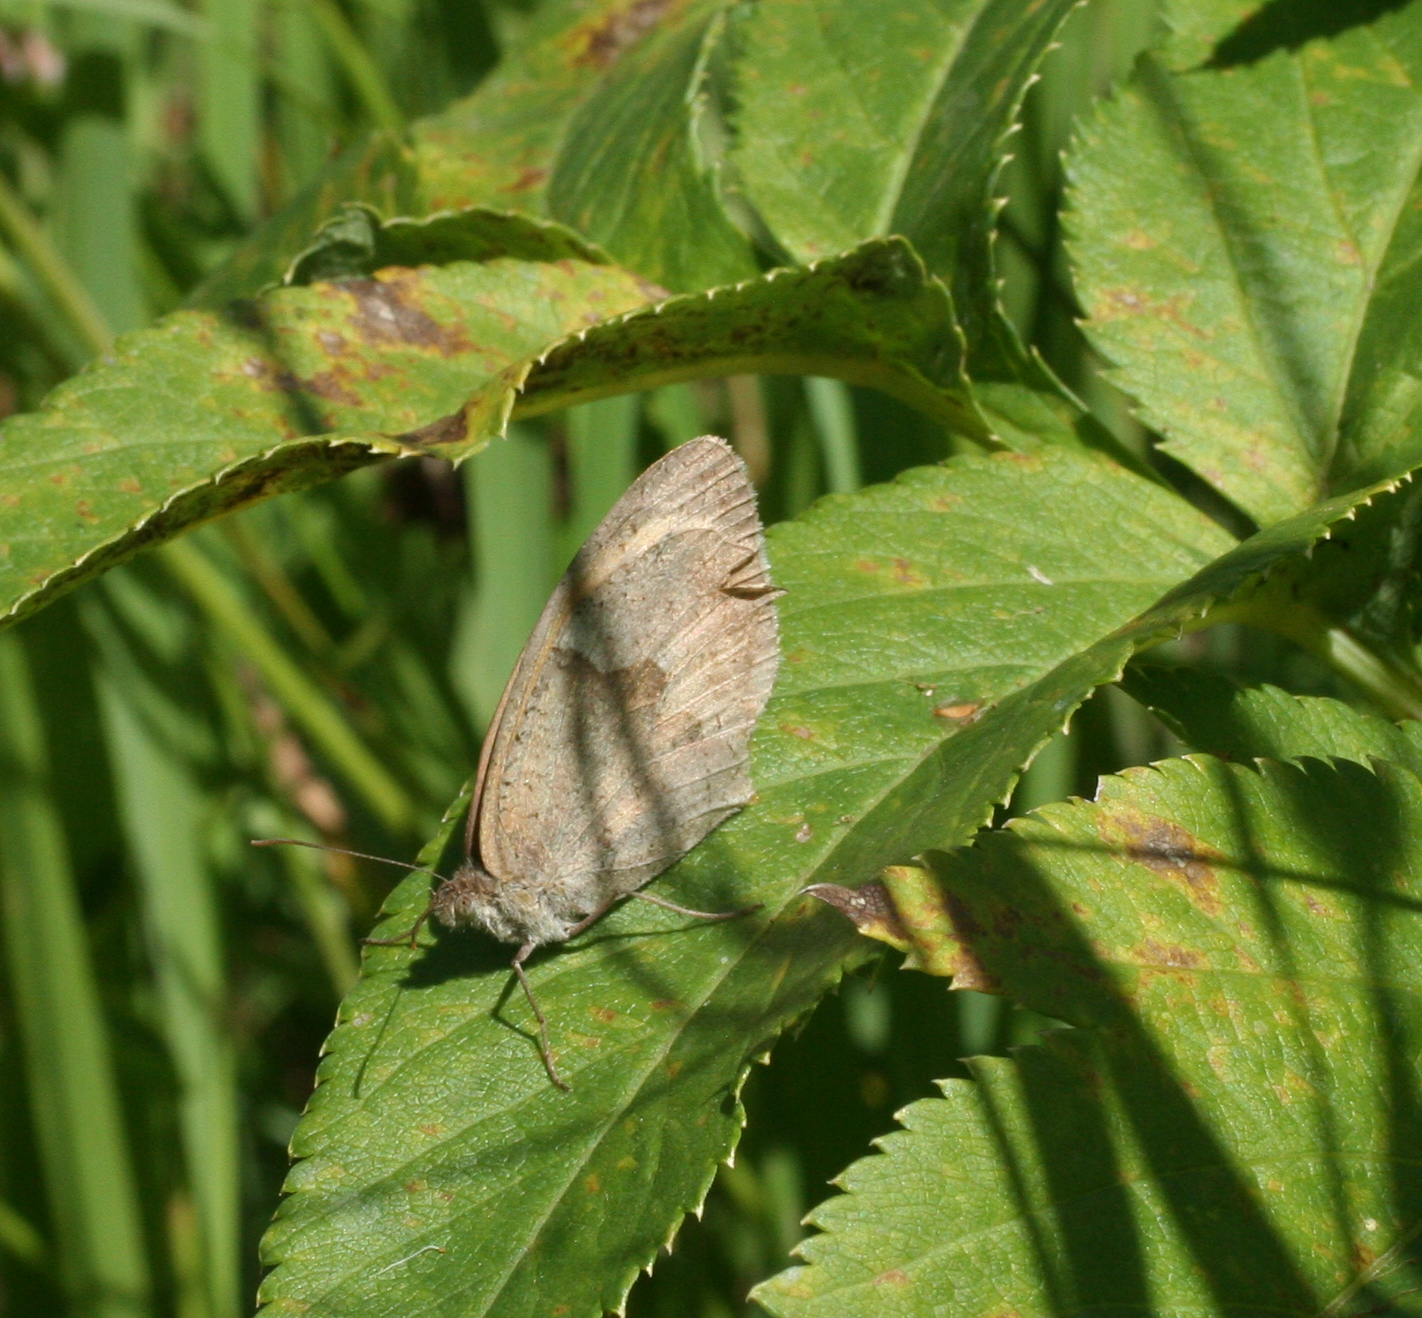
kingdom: Animalia
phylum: Arthropoda
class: Insecta
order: Lepidoptera
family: Nymphalidae
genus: Maniola
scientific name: Maniola jurtina
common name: Meadow brown
